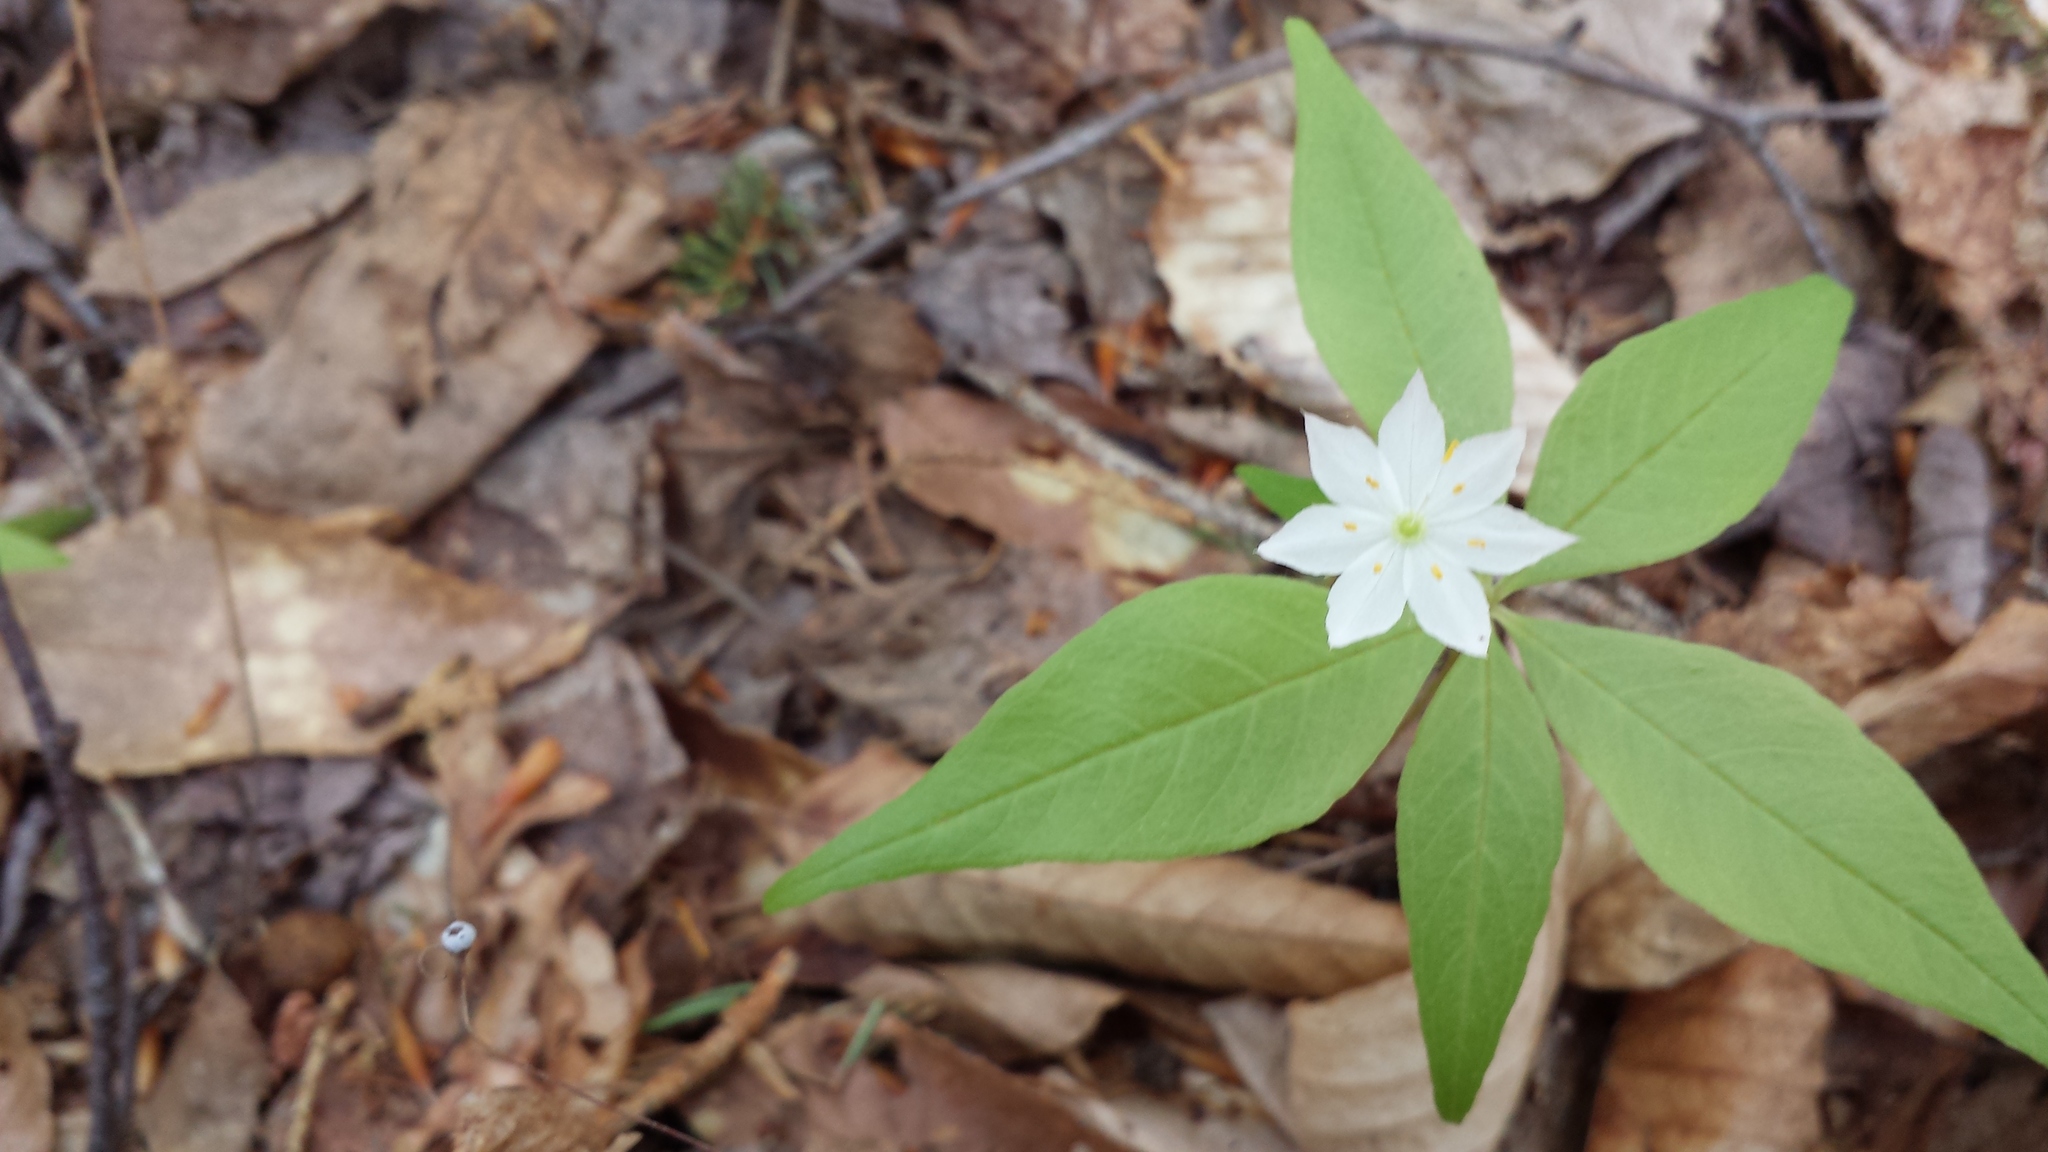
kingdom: Plantae
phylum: Tracheophyta
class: Magnoliopsida
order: Ericales
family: Primulaceae
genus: Lysimachia
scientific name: Lysimachia borealis
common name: American starflower
